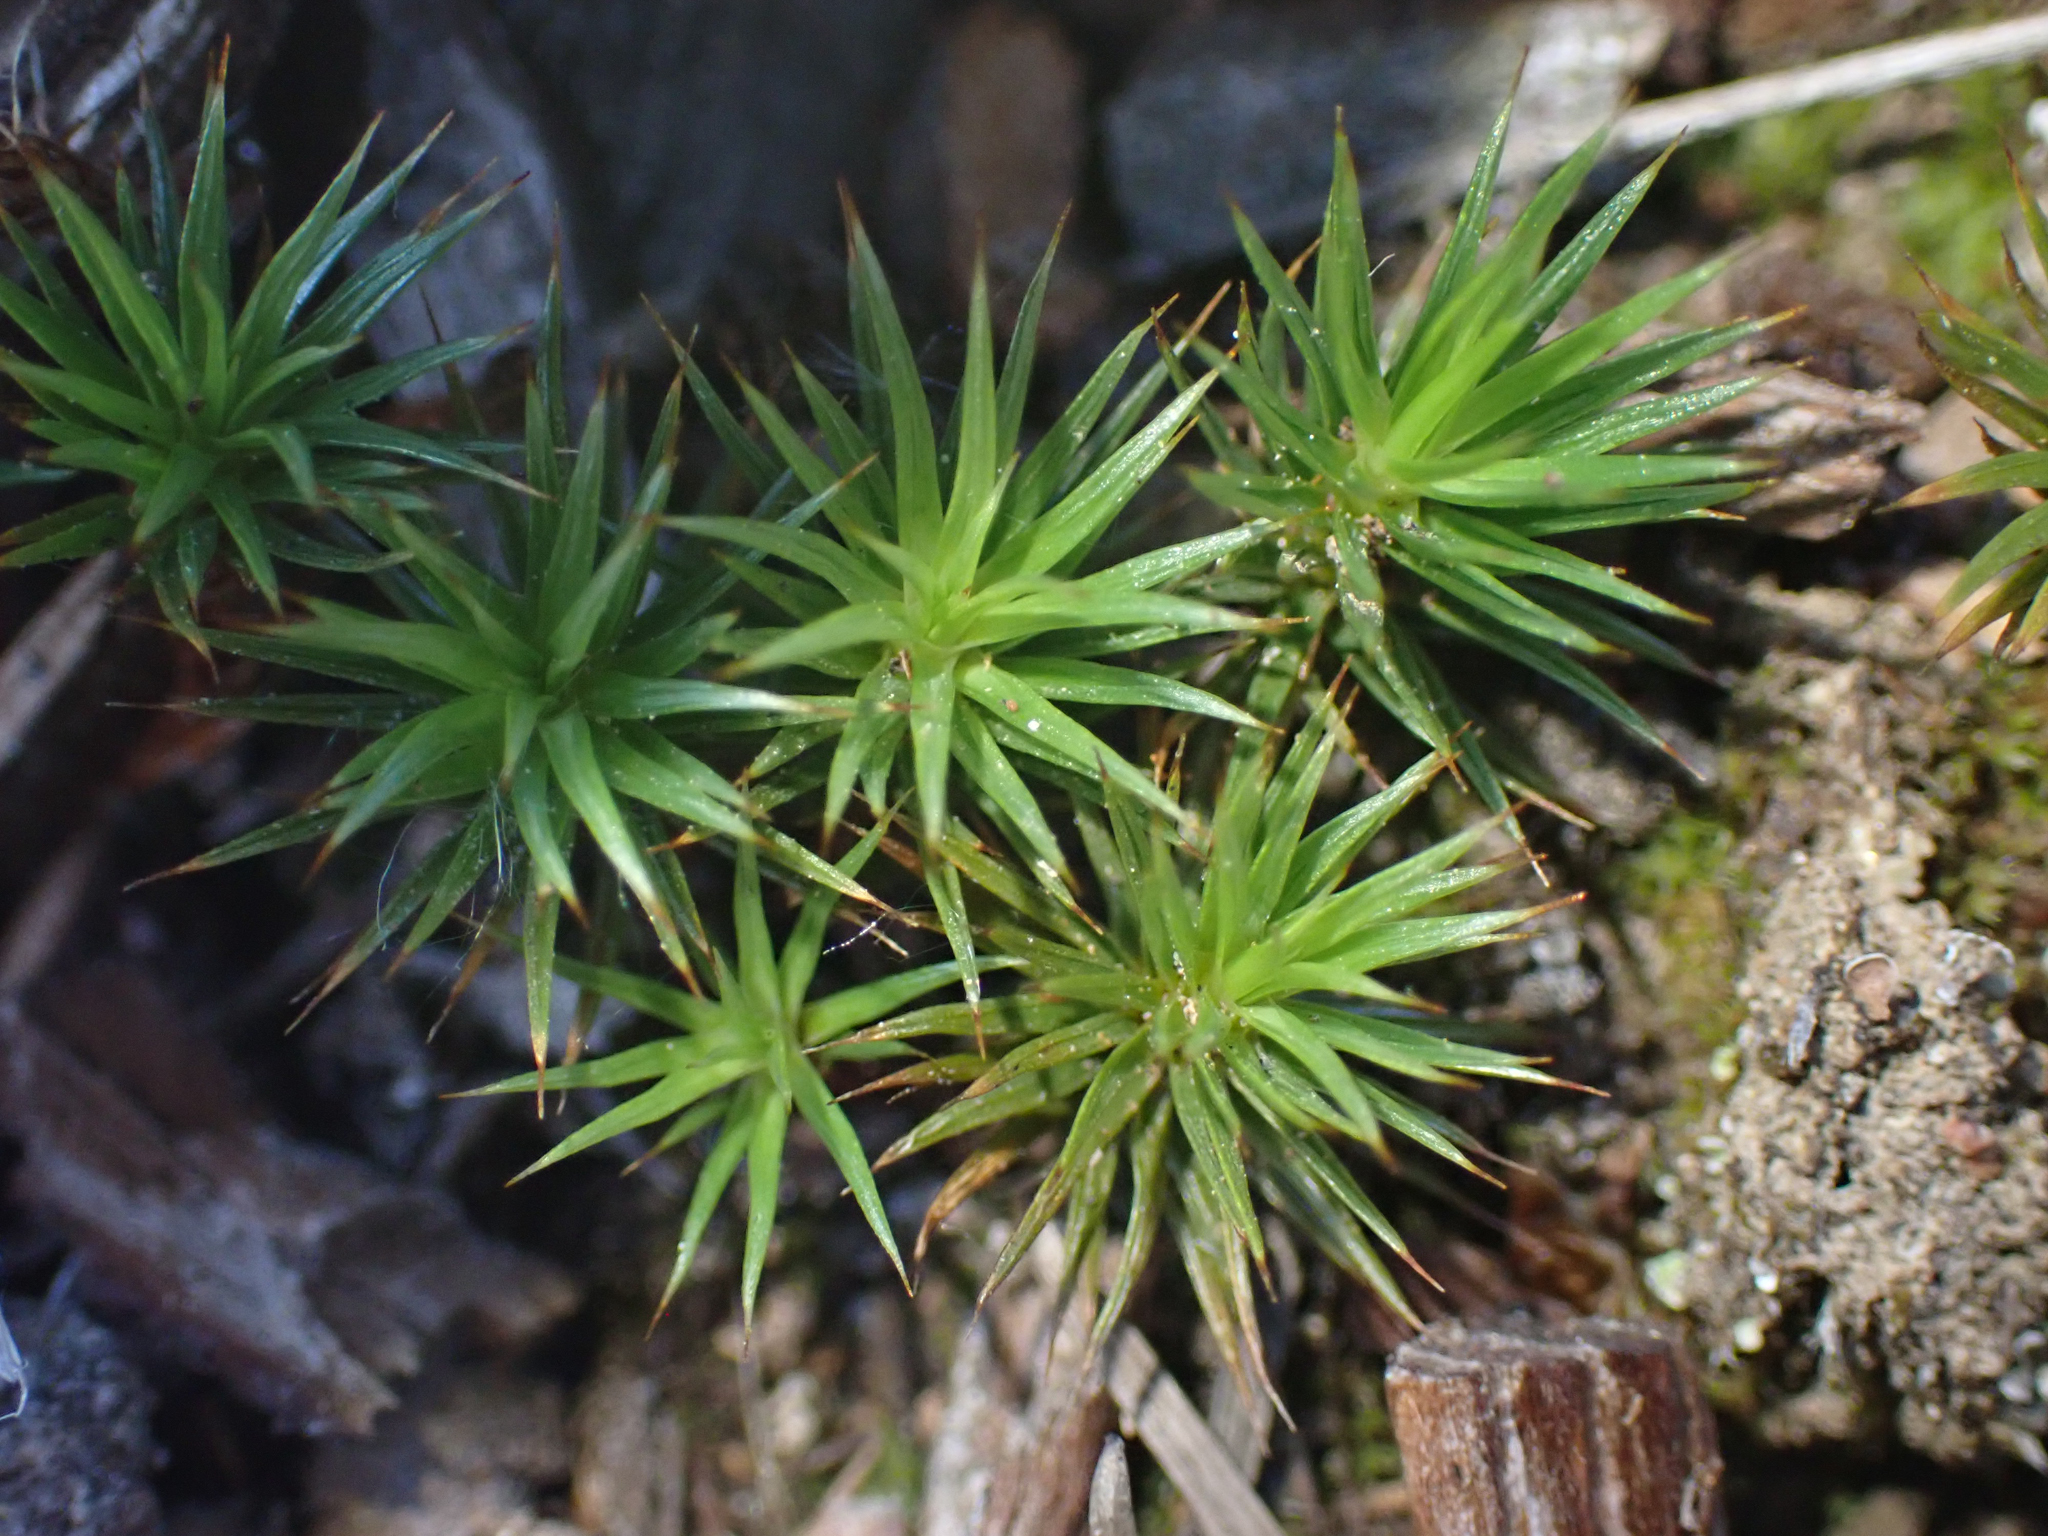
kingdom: Plantae
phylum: Bryophyta
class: Polytrichopsida
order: Polytrichales
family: Polytrichaceae
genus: Polytrichum
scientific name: Polytrichum juniperinum
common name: Juniper haircap moss
